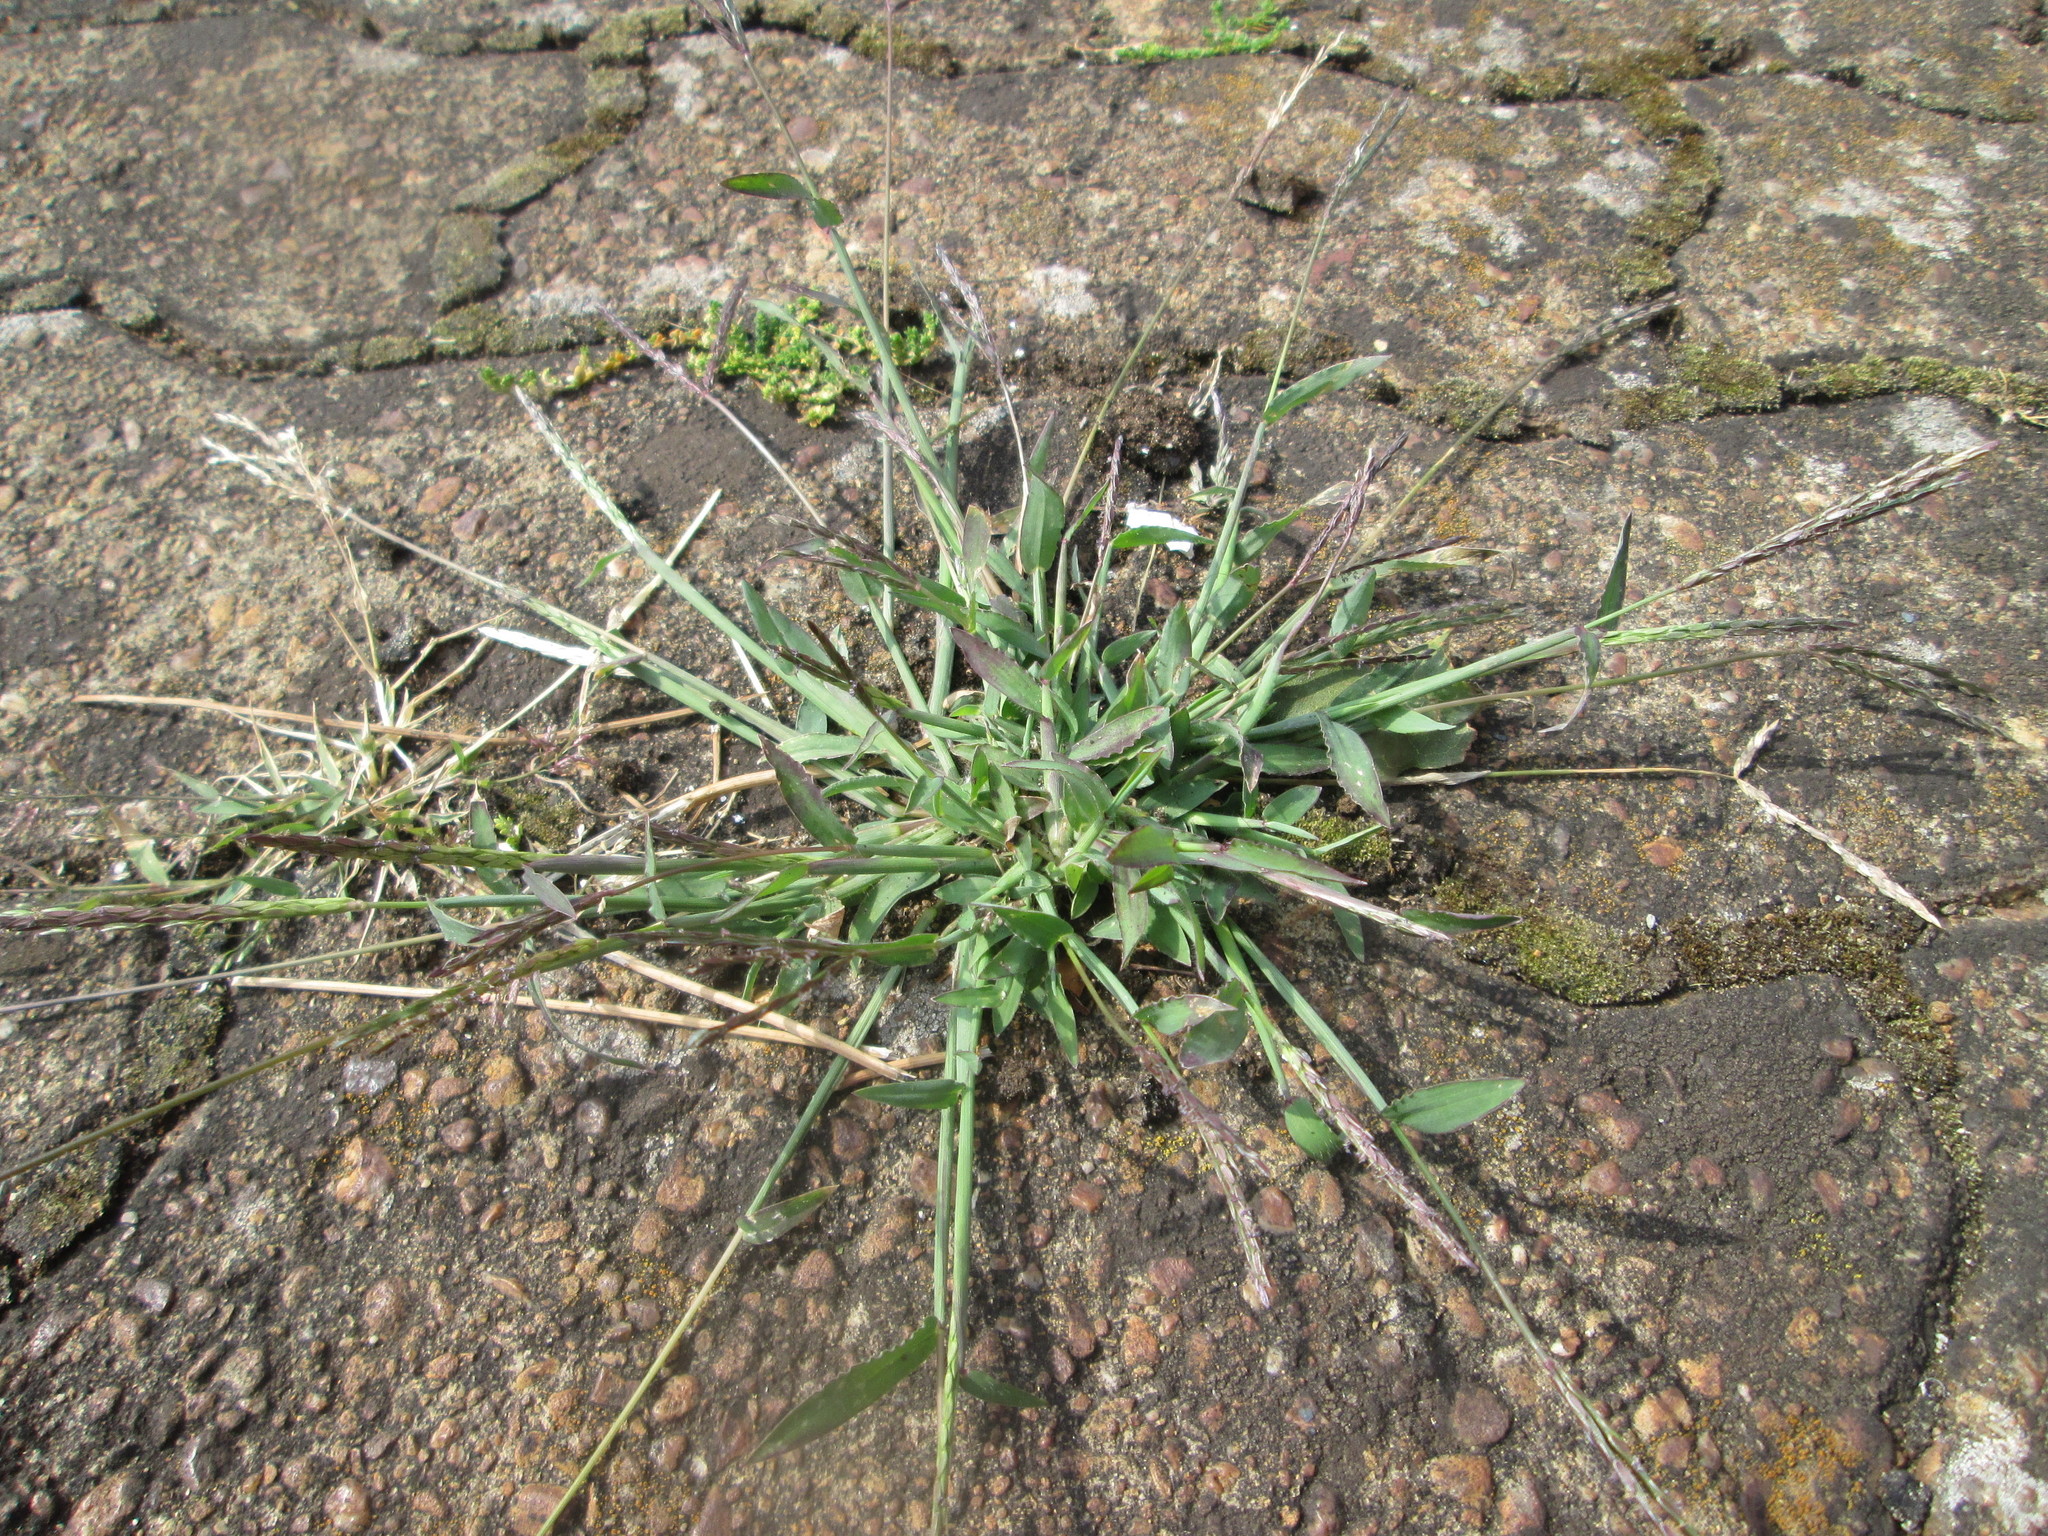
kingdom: Plantae
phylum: Tracheophyta
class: Liliopsida
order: Poales
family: Poaceae
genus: Digitaria
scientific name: Digitaria sanguinalis
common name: Hairy crabgrass
